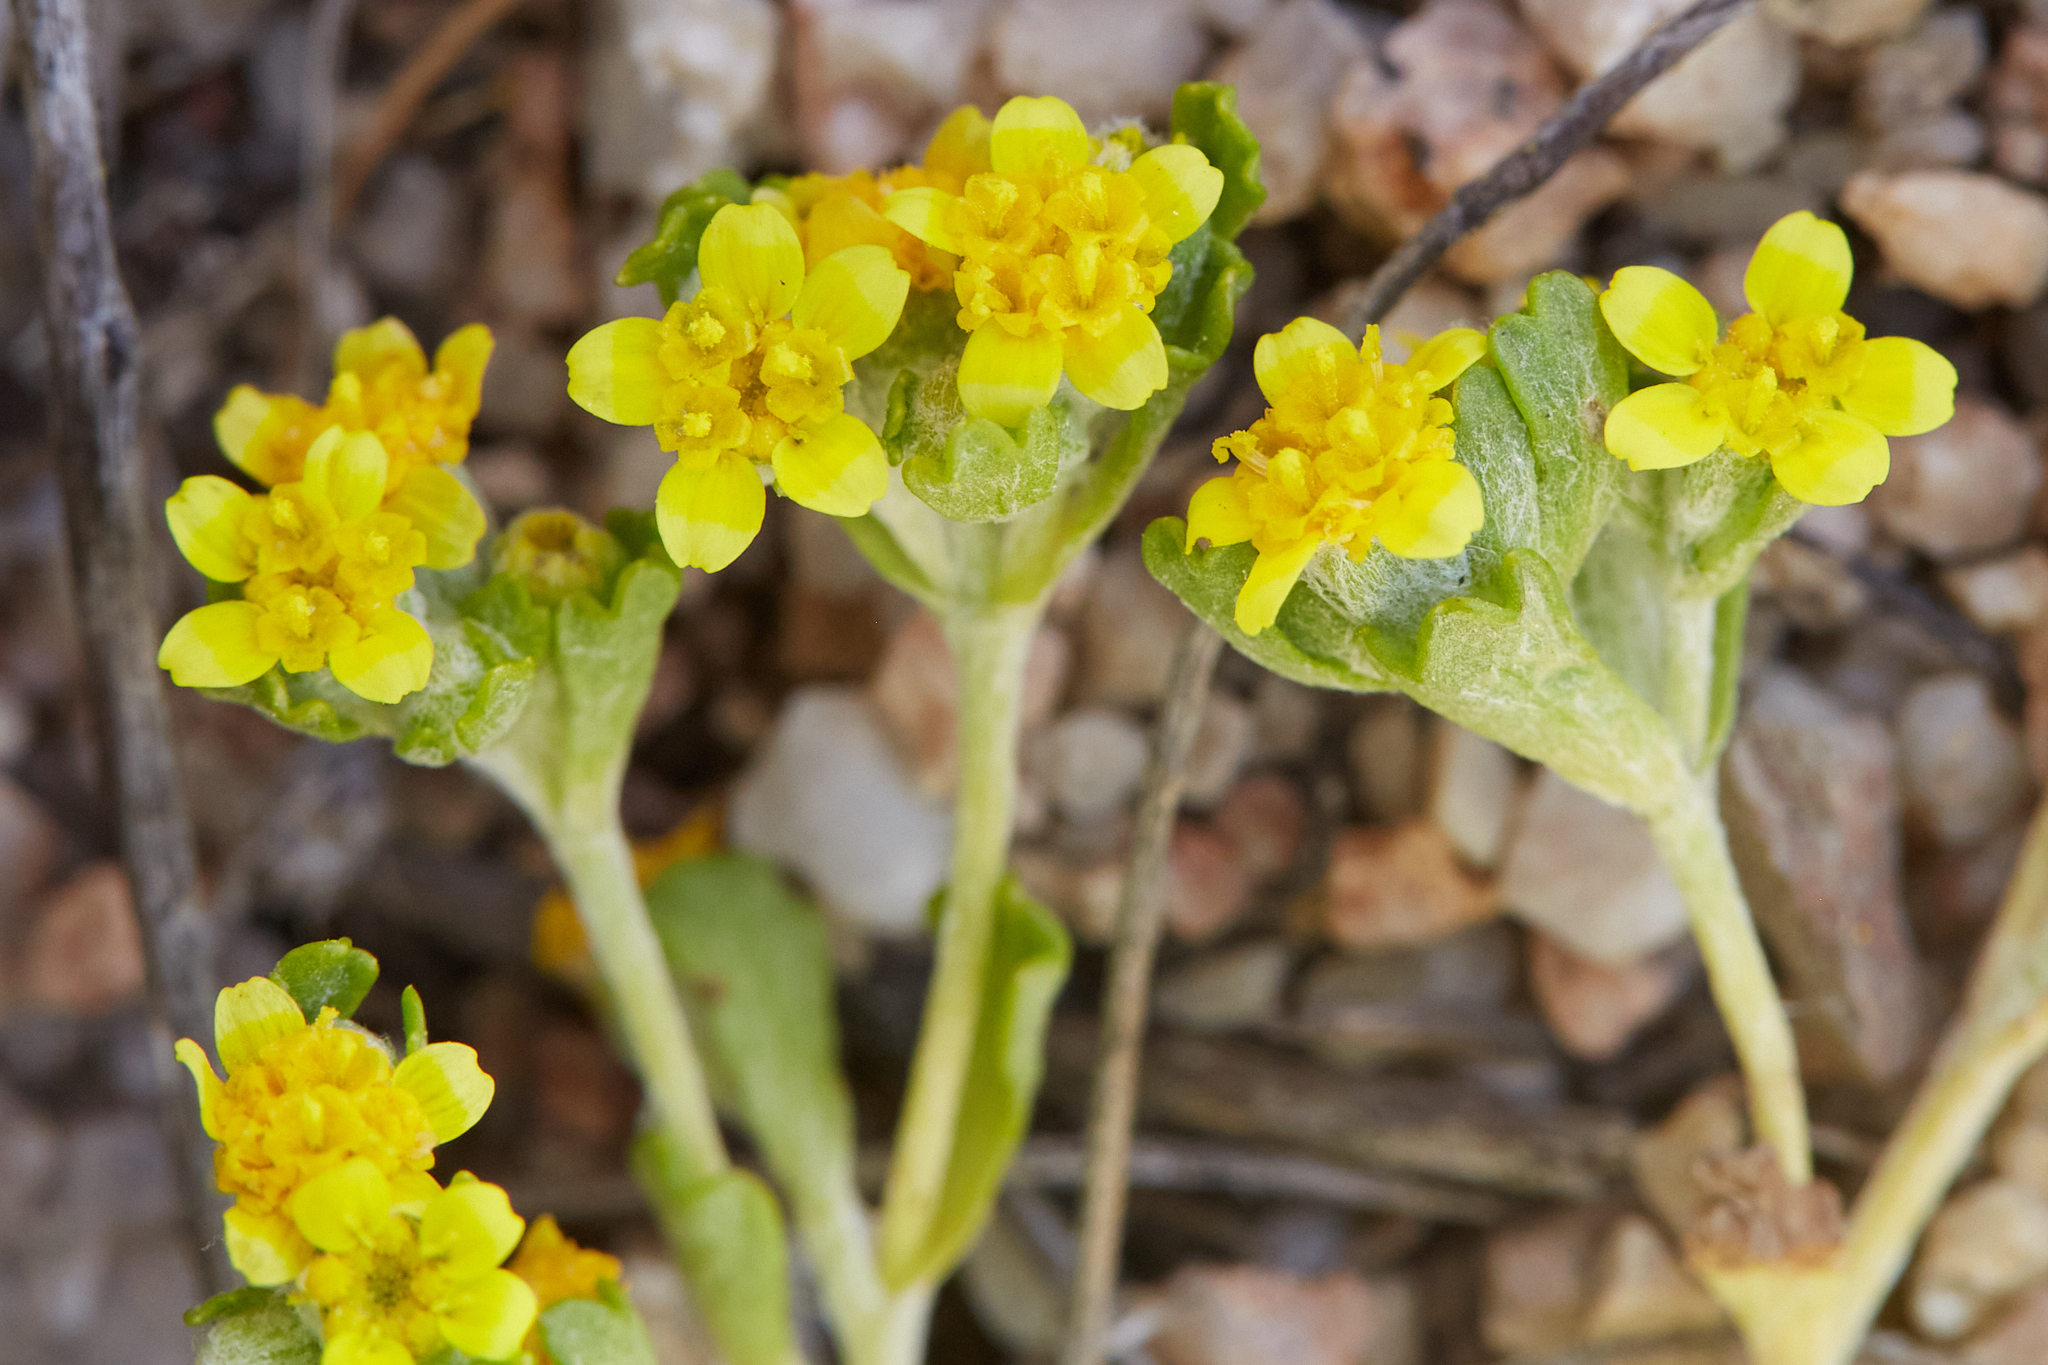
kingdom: Plantae
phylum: Tracheophyta
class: Magnoliopsida
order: Asterales
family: Asteraceae
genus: Eriophyllum
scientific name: Eriophyllum multicaule
